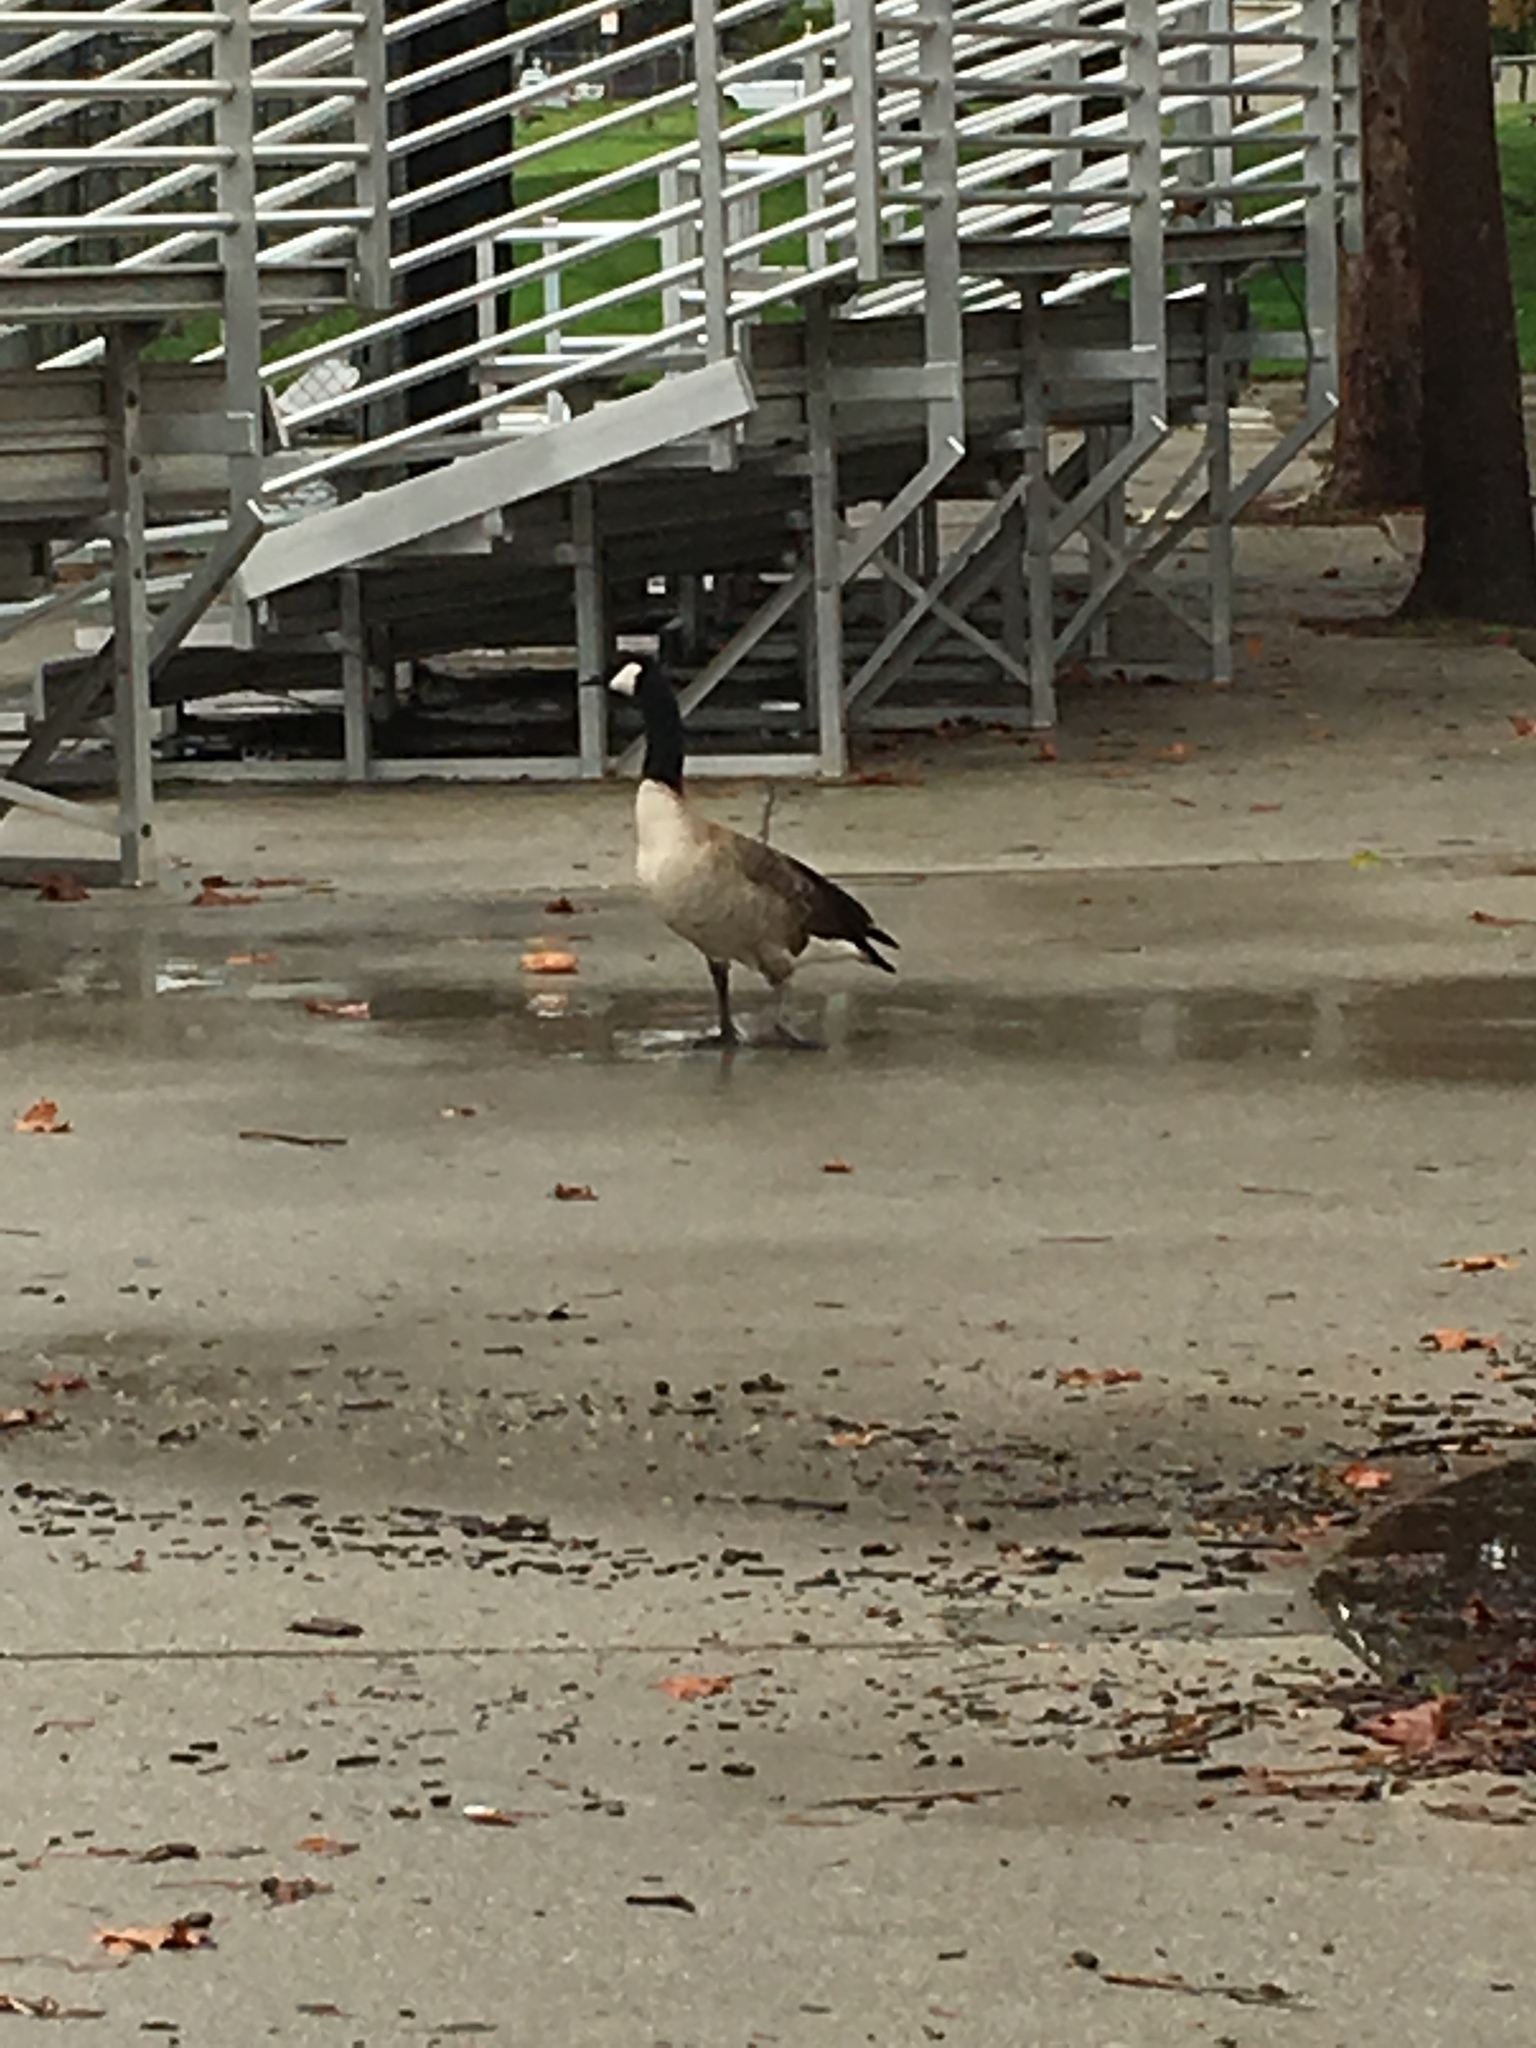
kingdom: Animalia
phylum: Chordata
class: Aves
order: Anseriformes
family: Anatidae
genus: Branta
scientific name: Branta canadensis
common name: Canada goose
